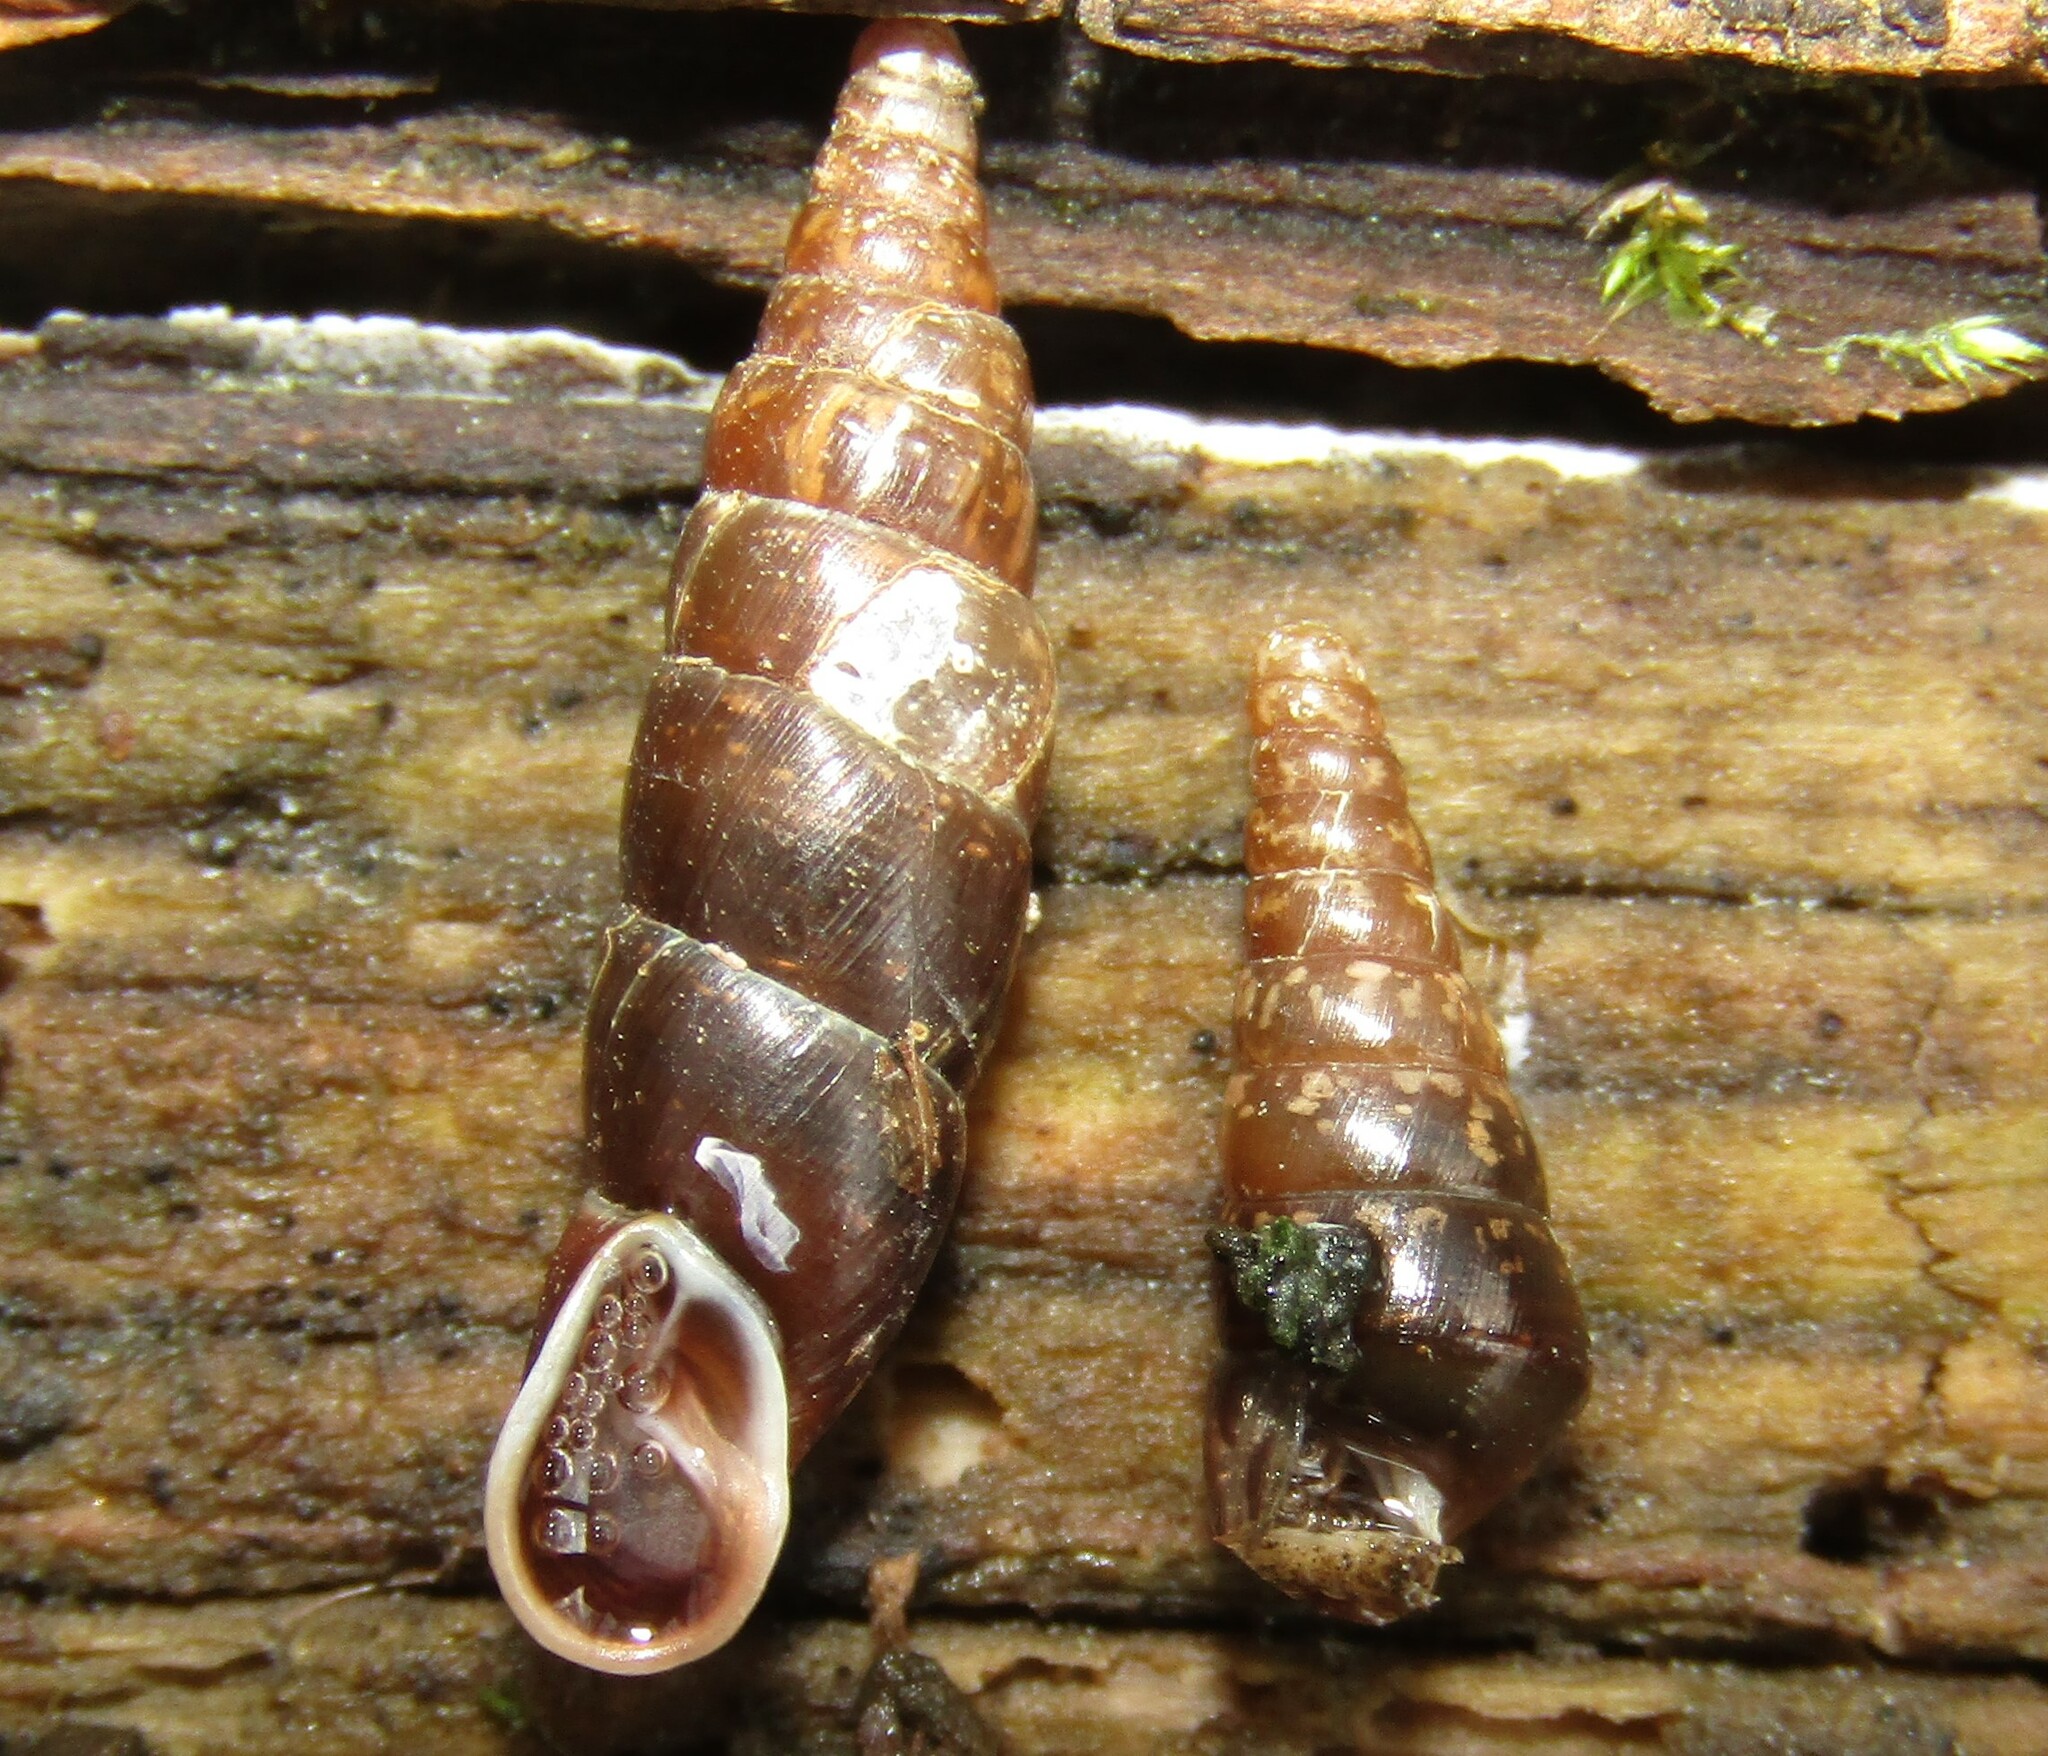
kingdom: Animalia
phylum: Mollusca
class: Gastropoda
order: Stylommatophora
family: Clausiliidae
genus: Cochlodina
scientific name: Cochlodina laminata
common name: Plaited door snail
